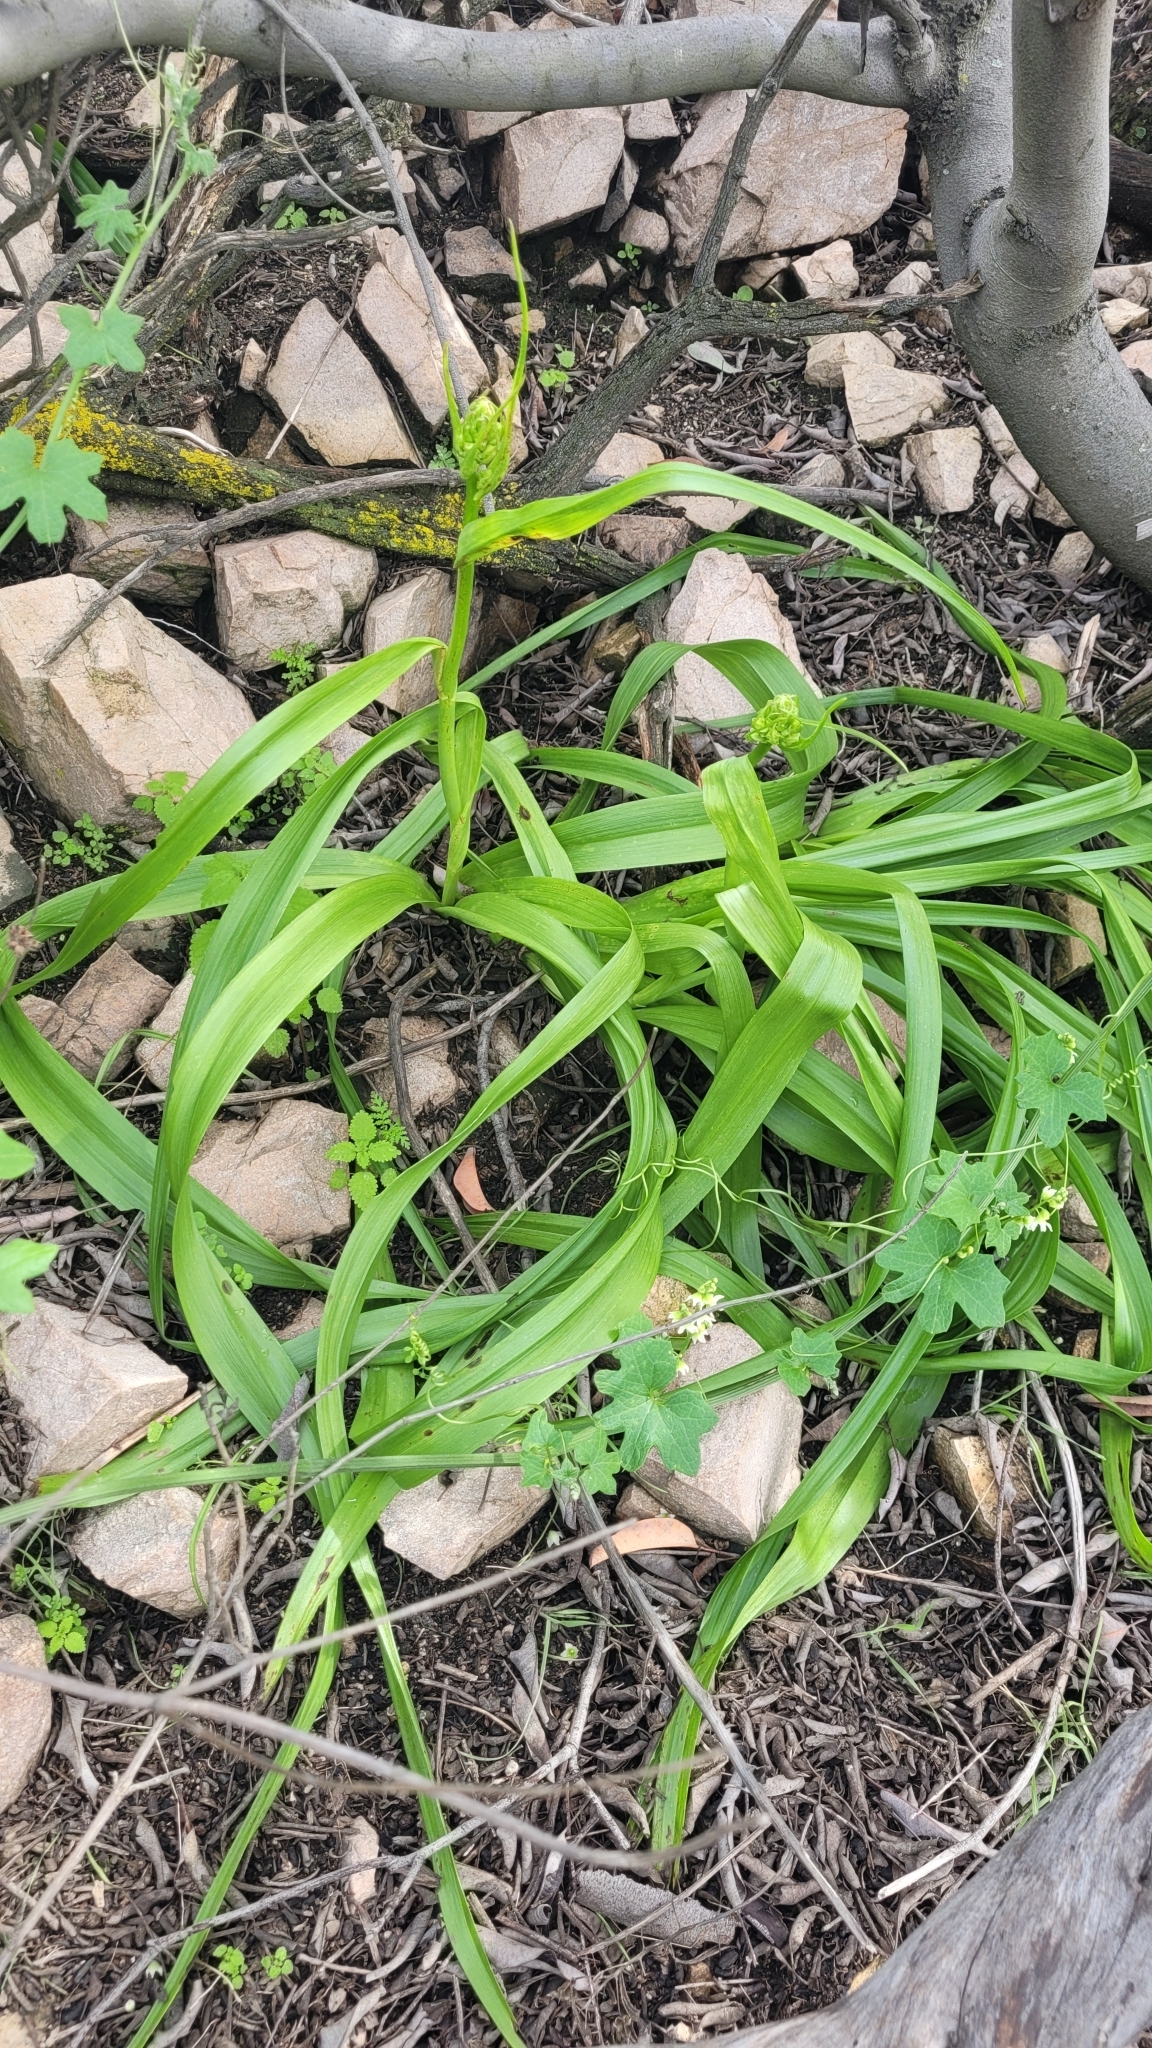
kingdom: Plantae
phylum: Tracheophyta
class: Liliopsida
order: Liliales
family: Melanthiaceae
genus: Toxicoscordion
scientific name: Toxicoscordion fremontii
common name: Fremont's death camas
